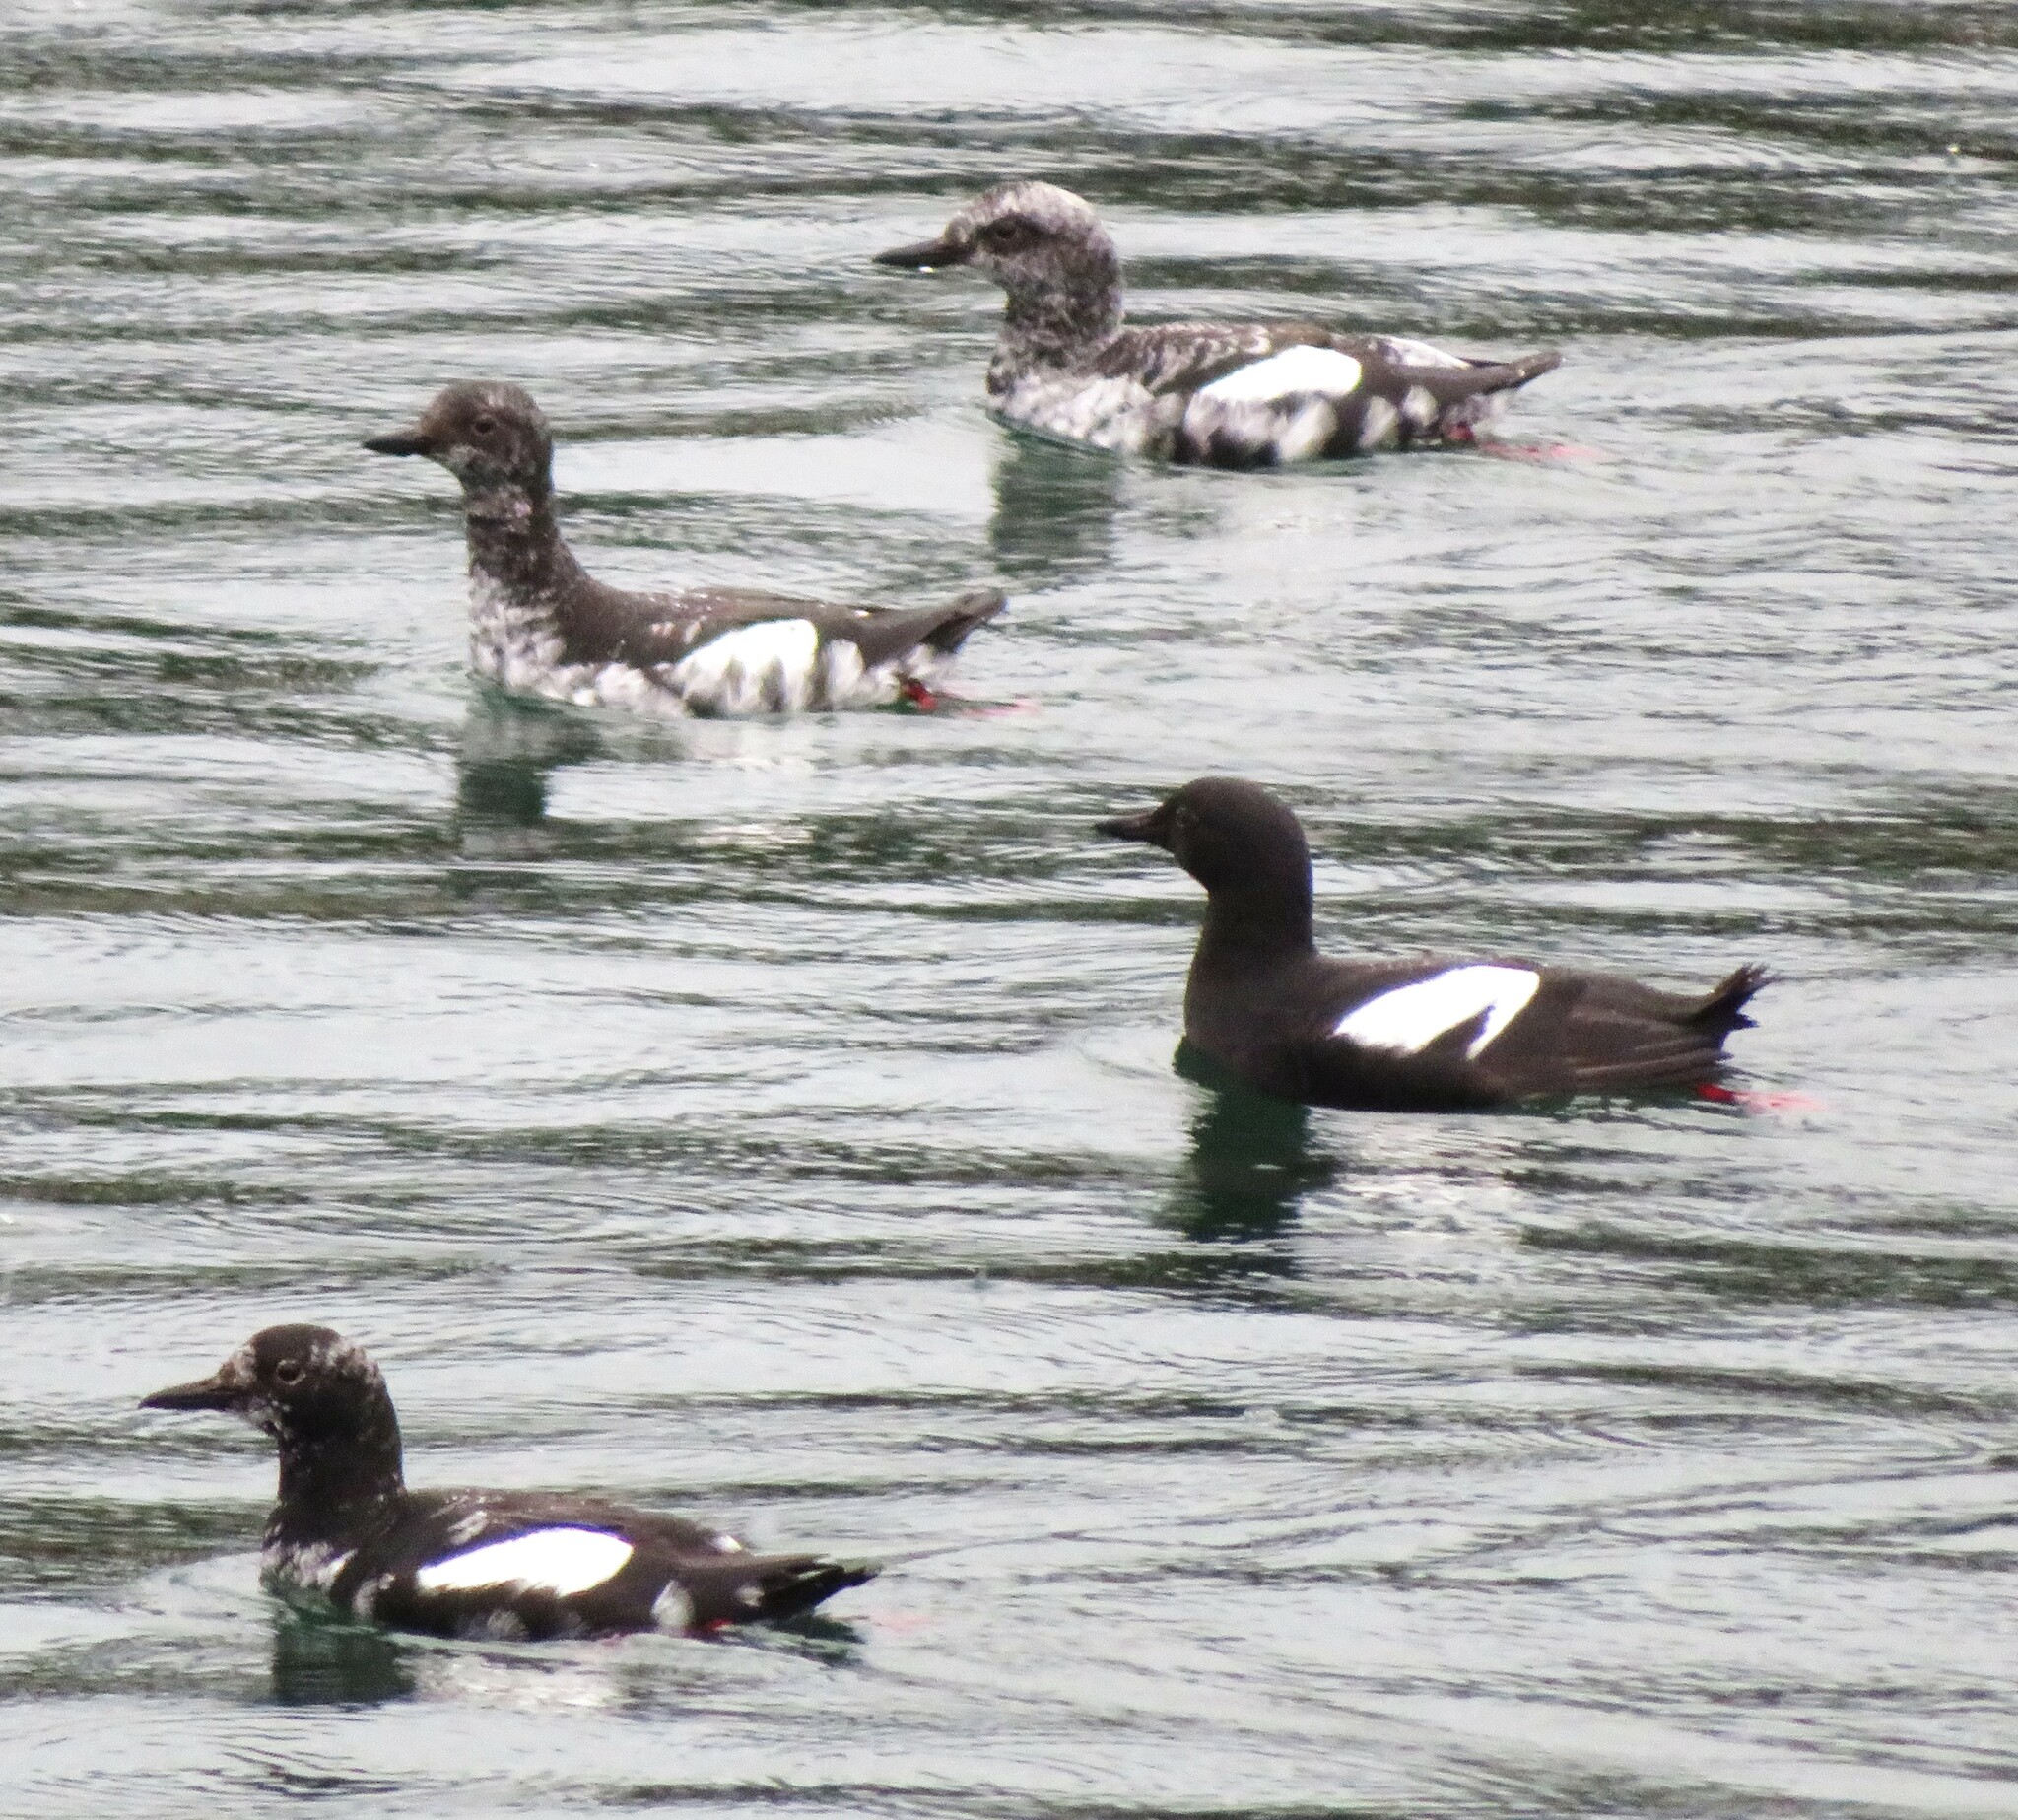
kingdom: Animalia
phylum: Chordata
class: Aves
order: Charadriiformes
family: Alcidae
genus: Cepphus
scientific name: Cepphus columba
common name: Pigeon guillemot
